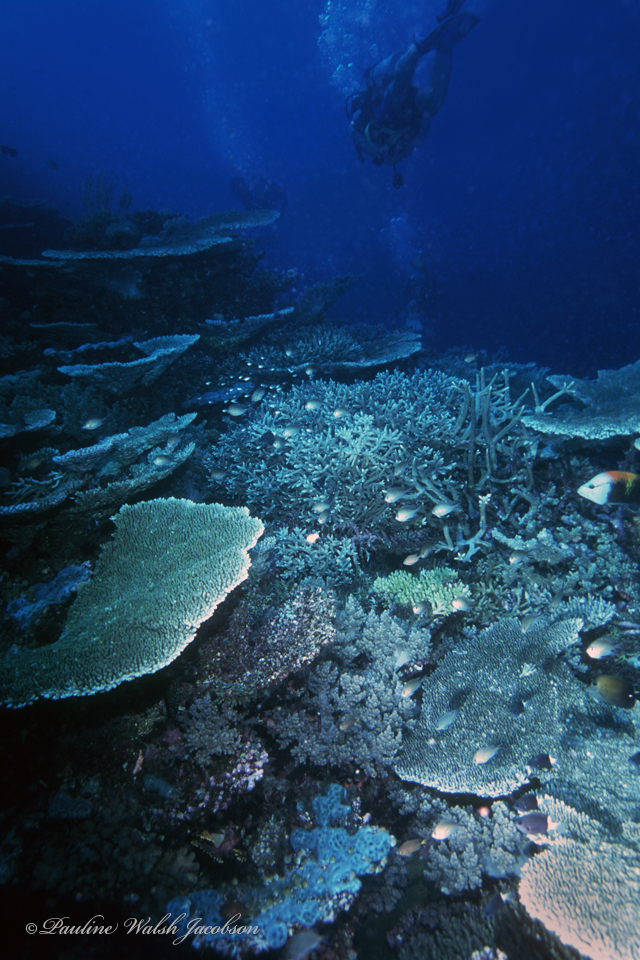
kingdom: Animalia
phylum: Cnidaria
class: Anthozoa
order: Scleractinia
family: Acroporidae
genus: Acropora
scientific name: Acropora hyacinthus
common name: Hyacinth table coral
